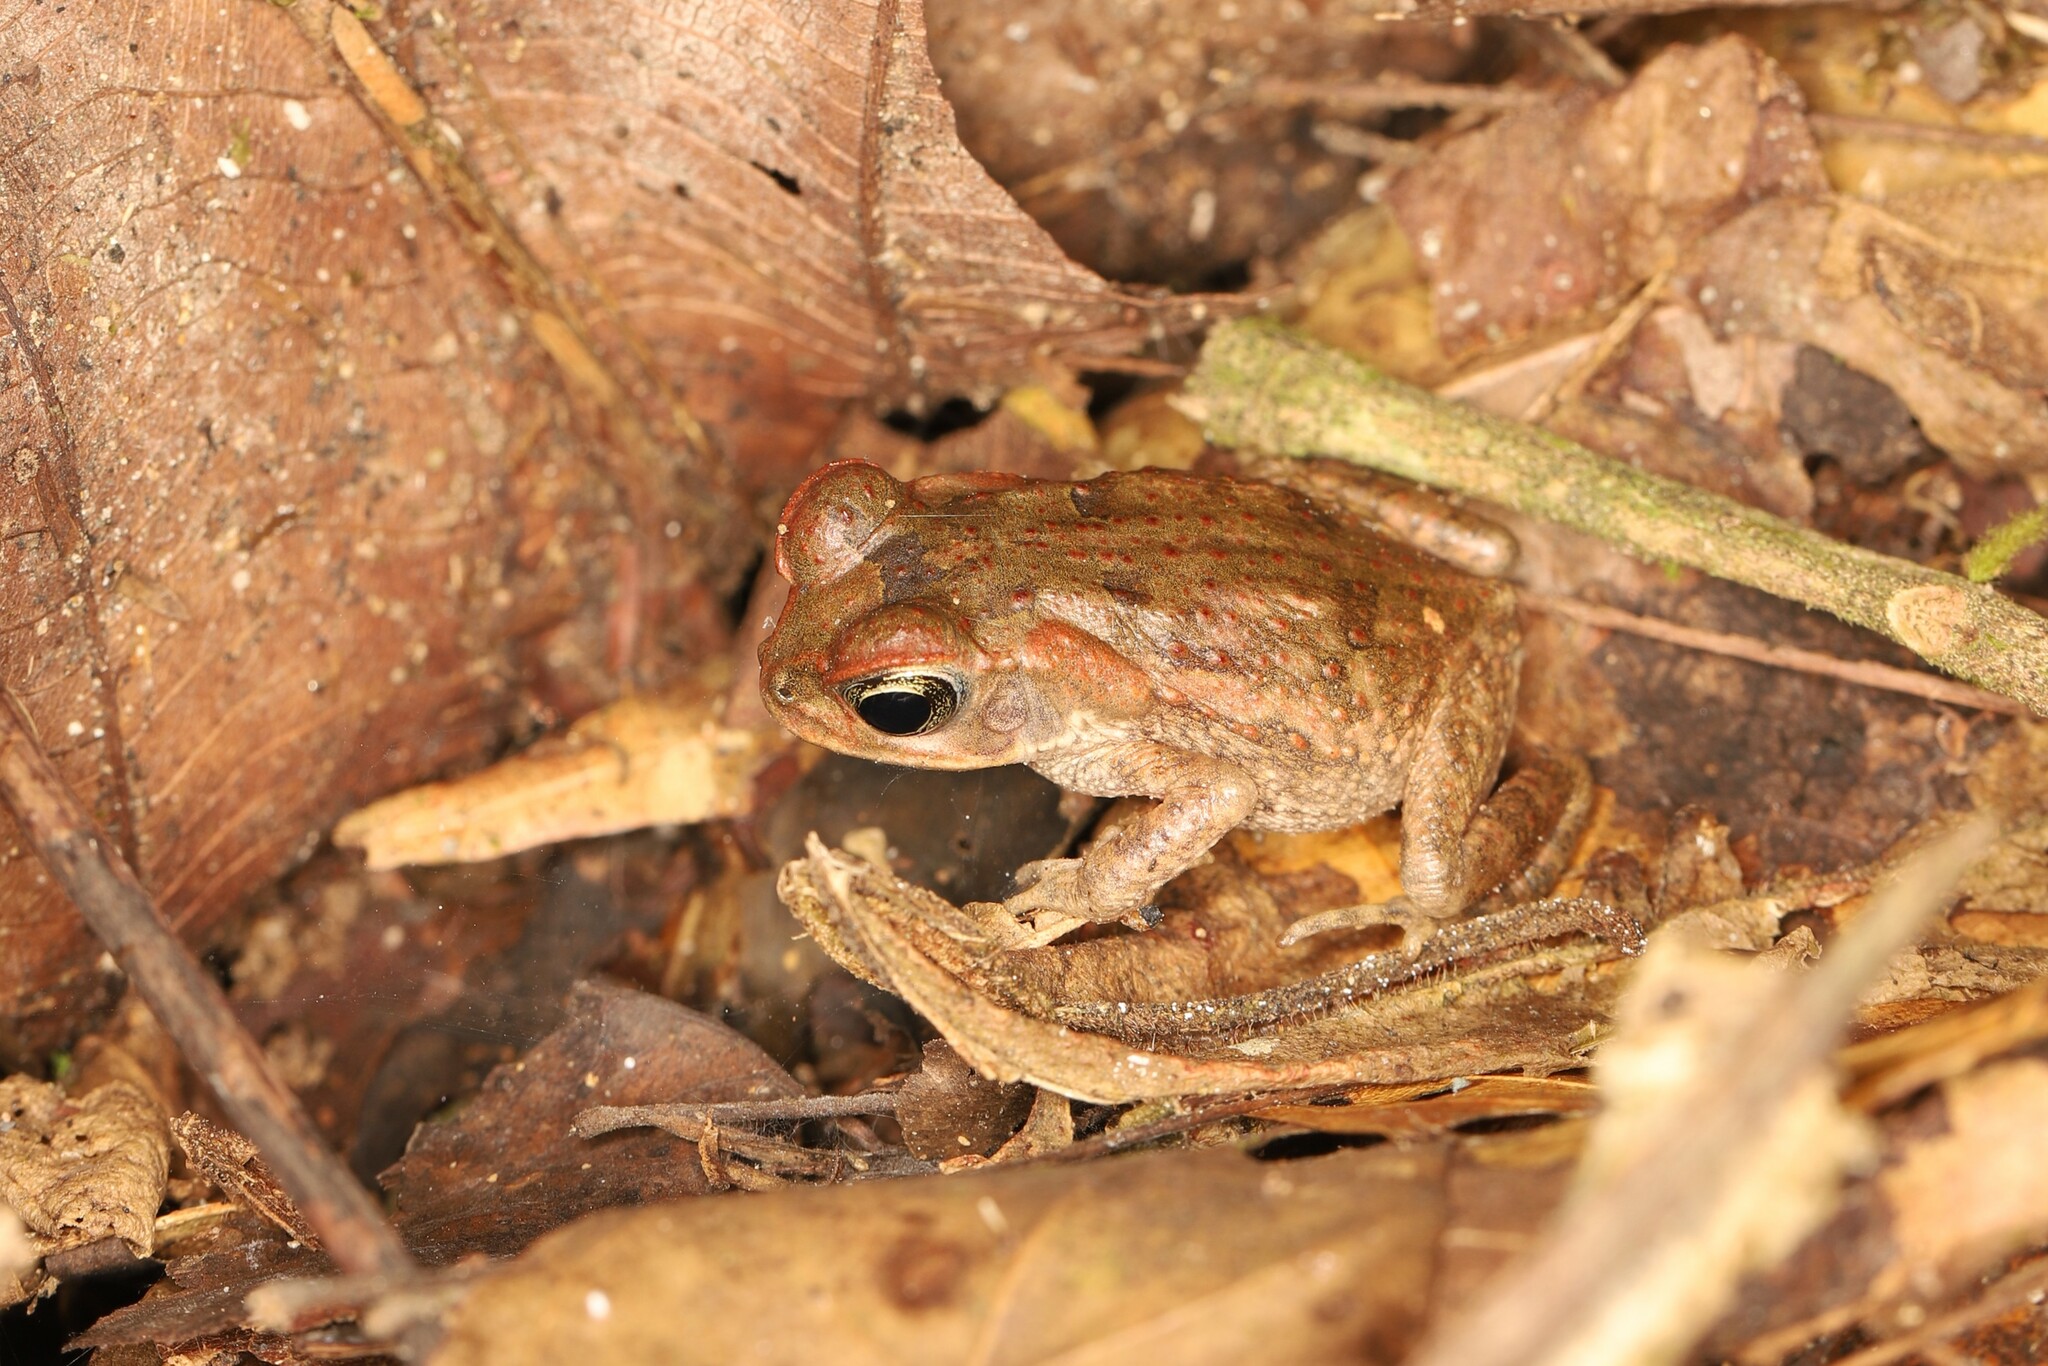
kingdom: Animalia
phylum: Chordata
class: Amphibia
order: Anura
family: Bufonidae
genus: Rhinella
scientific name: Rhinella horribilis
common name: Mesoamerican cane toad
